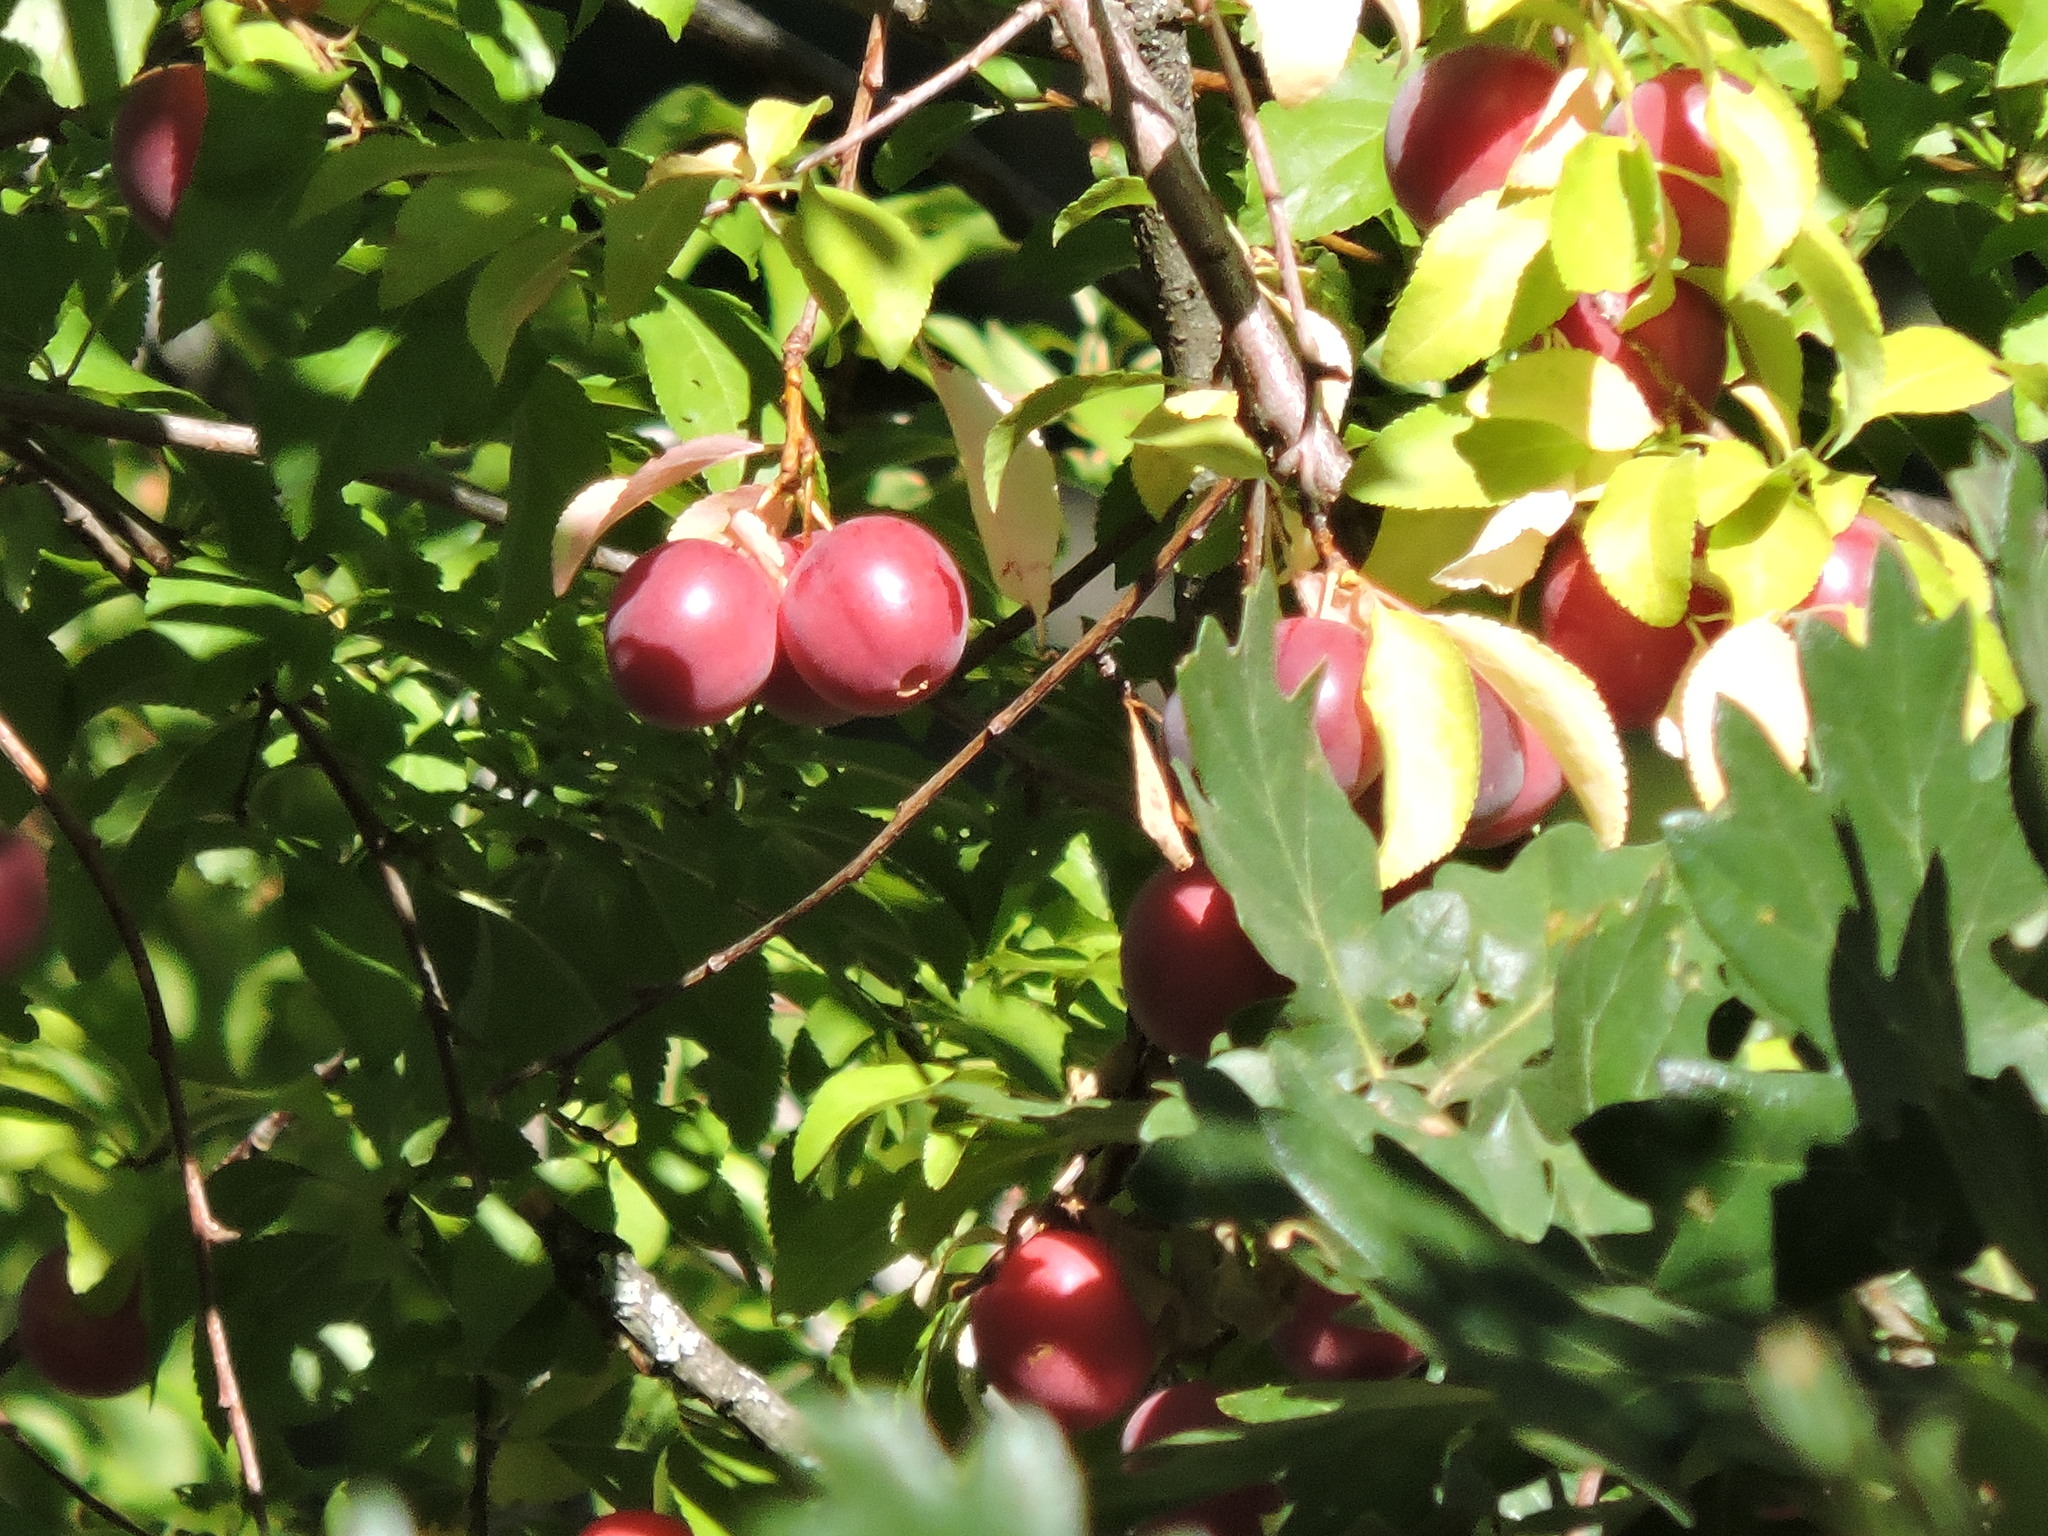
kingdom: Plantae
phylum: Tracheophyta
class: Magnoliopsida
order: Rosales
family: Rosaceae
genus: Prunus
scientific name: Prunus cerasifera
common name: Cherry plum
